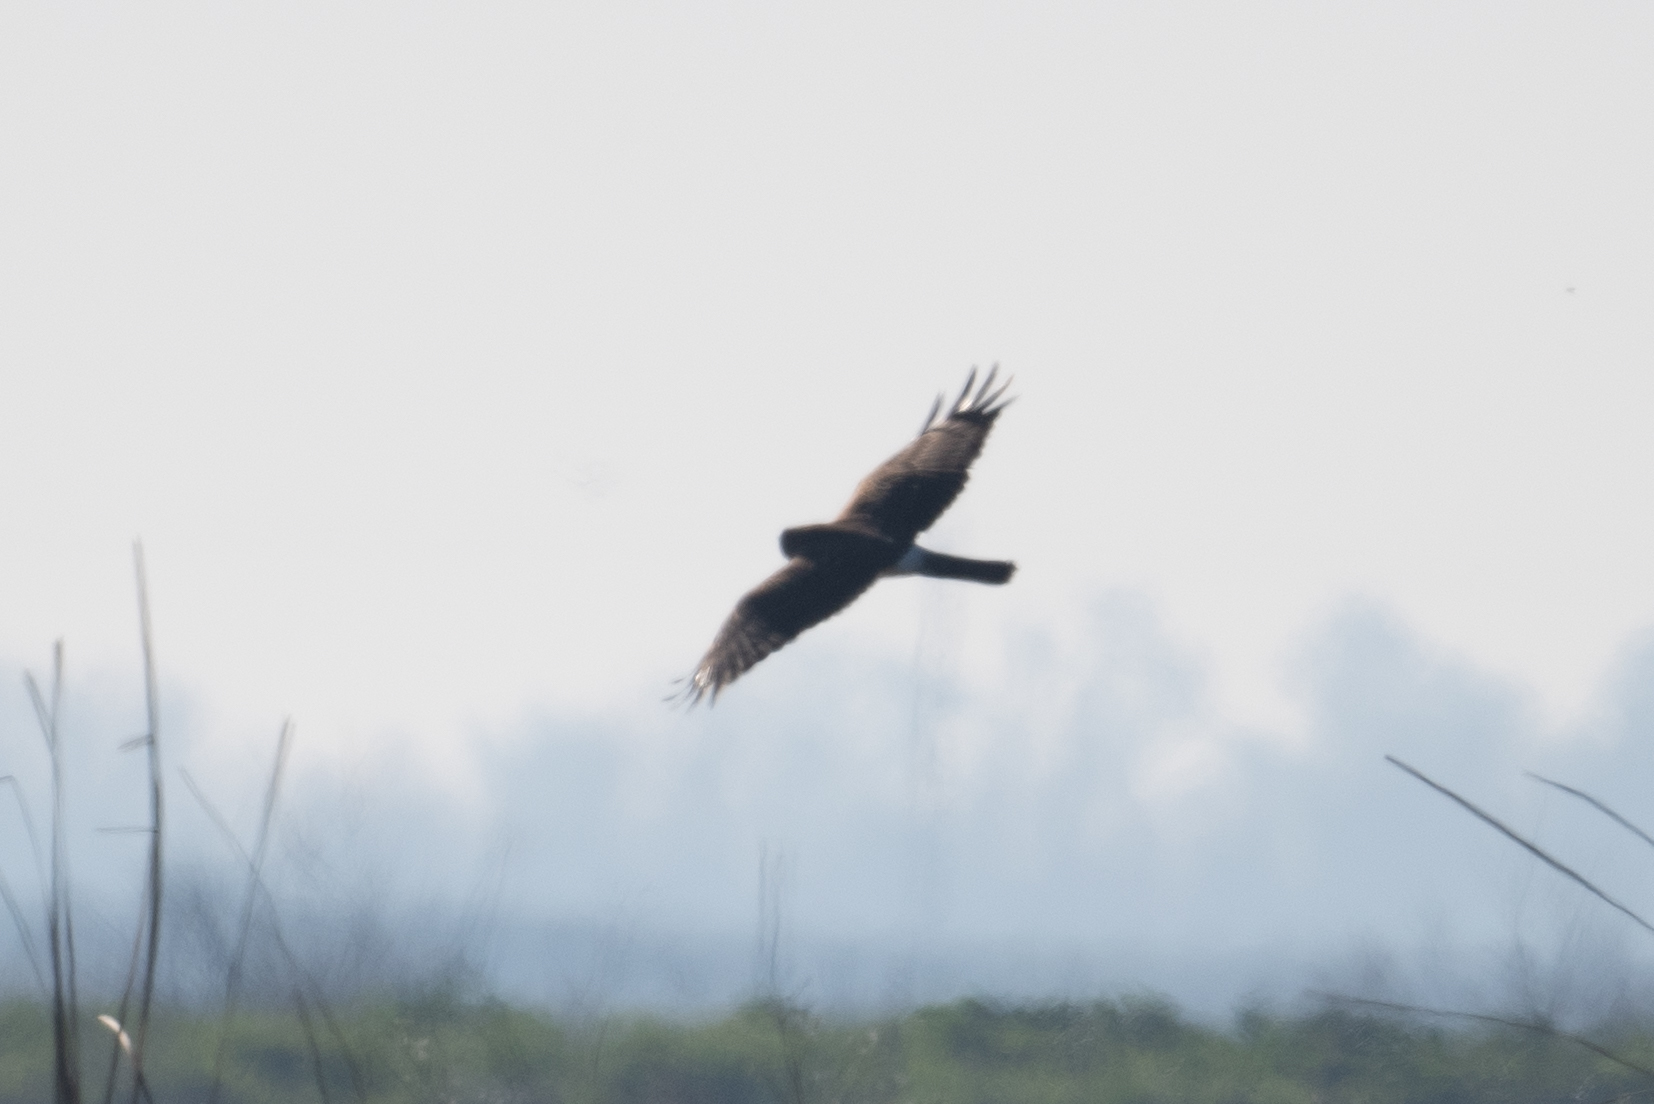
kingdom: Animalia
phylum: Chordata
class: Aves
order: Accipitriformes
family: Accipitridae
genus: Circus
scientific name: Circus cyaneus
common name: Hen harrier
